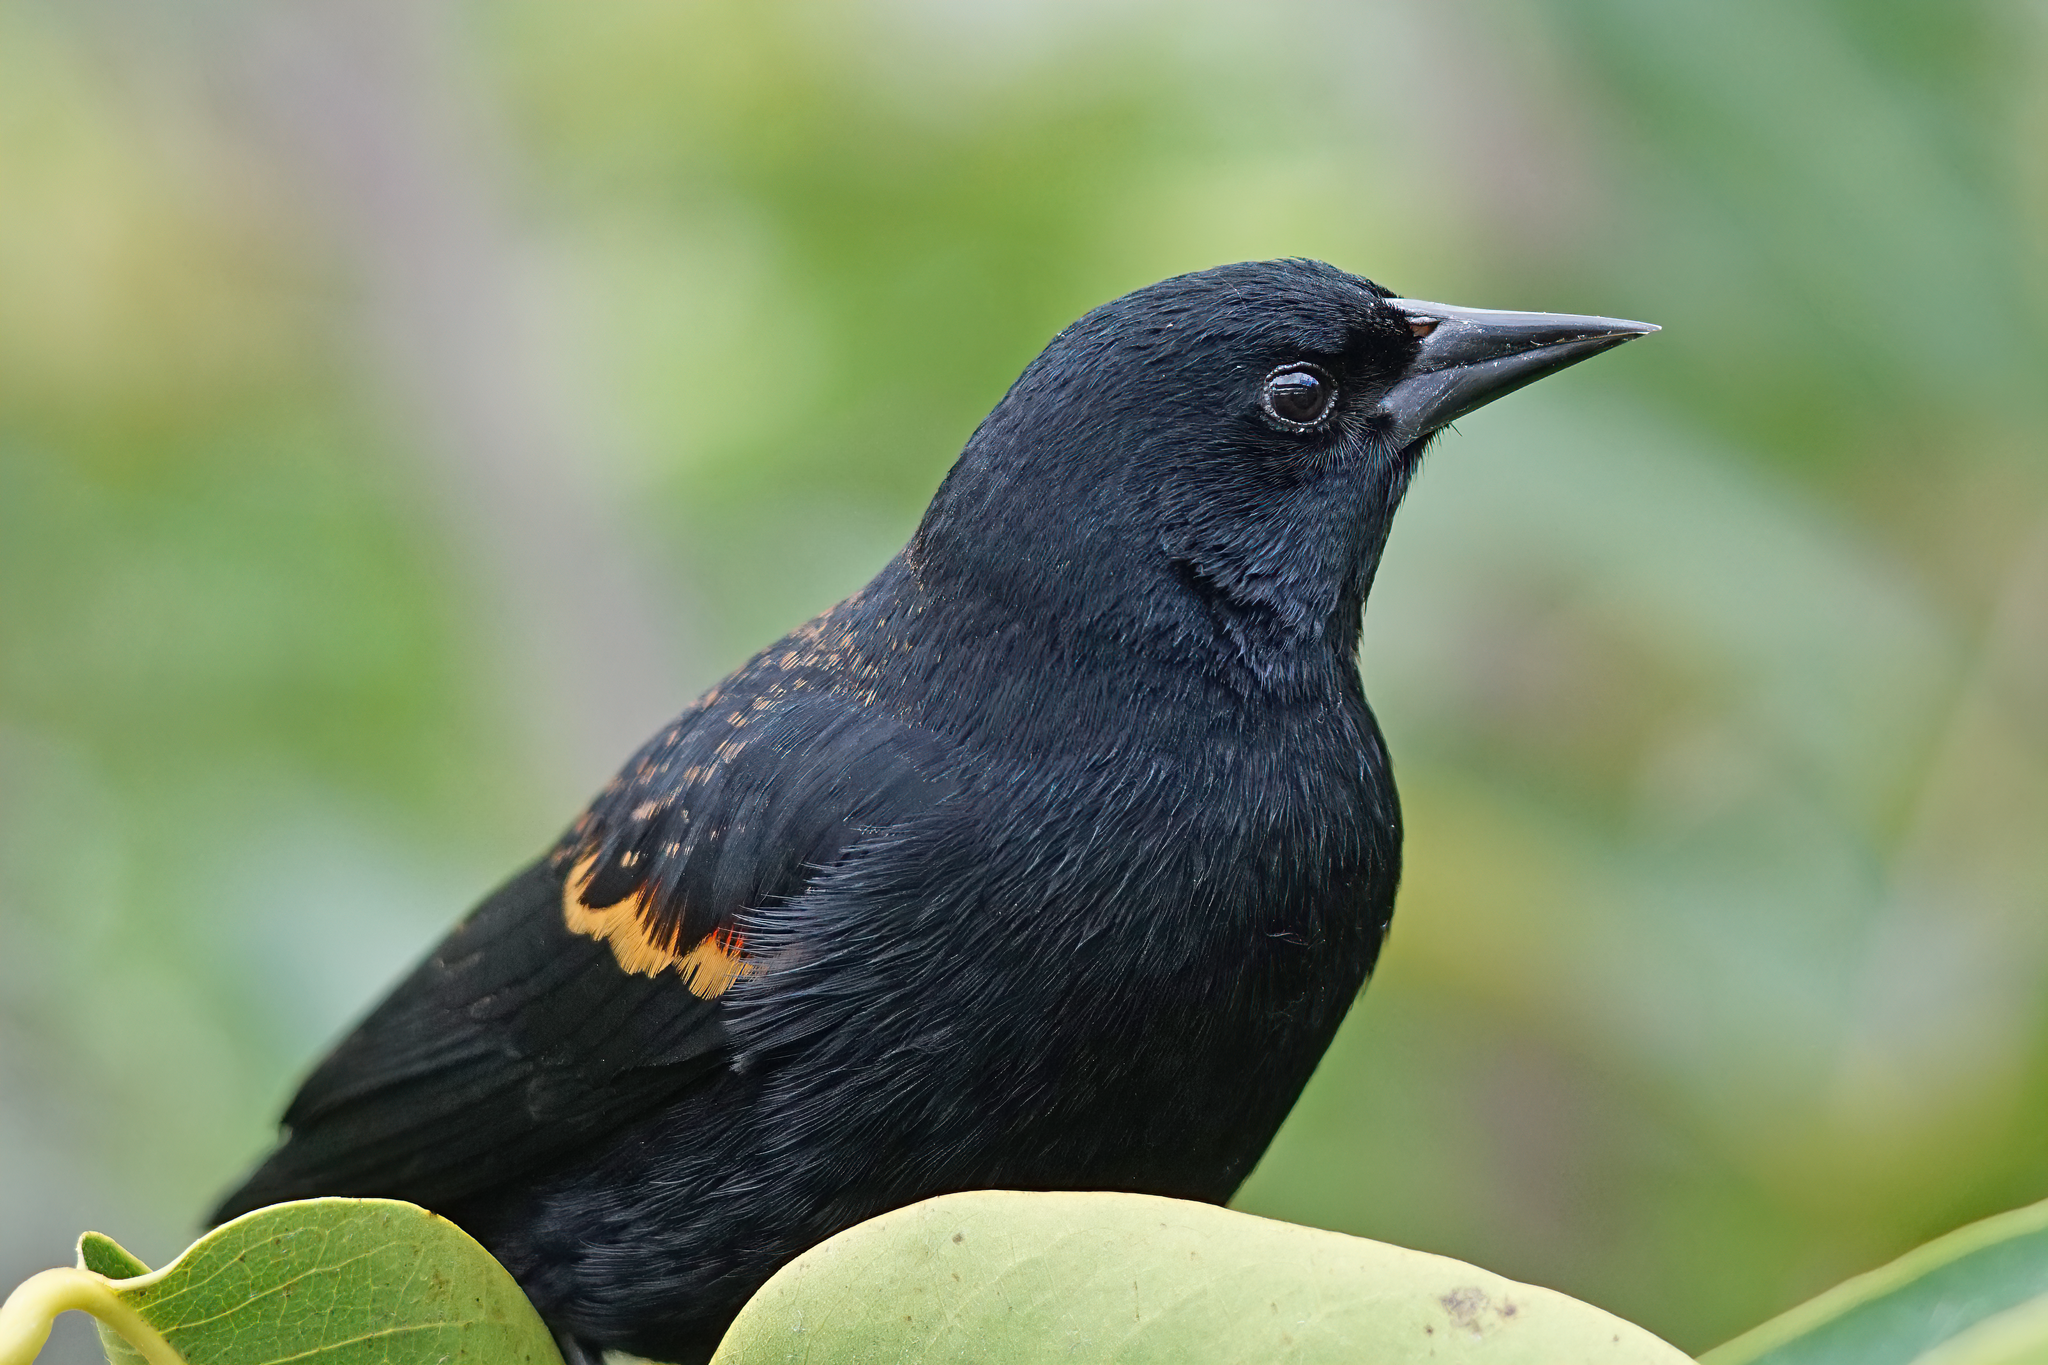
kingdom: Animalia
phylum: Chordata
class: Aves
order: Passeriformes
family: Icteridae
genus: Agelaius
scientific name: Agelaius phoeniceus
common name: Red-winged blackbird
